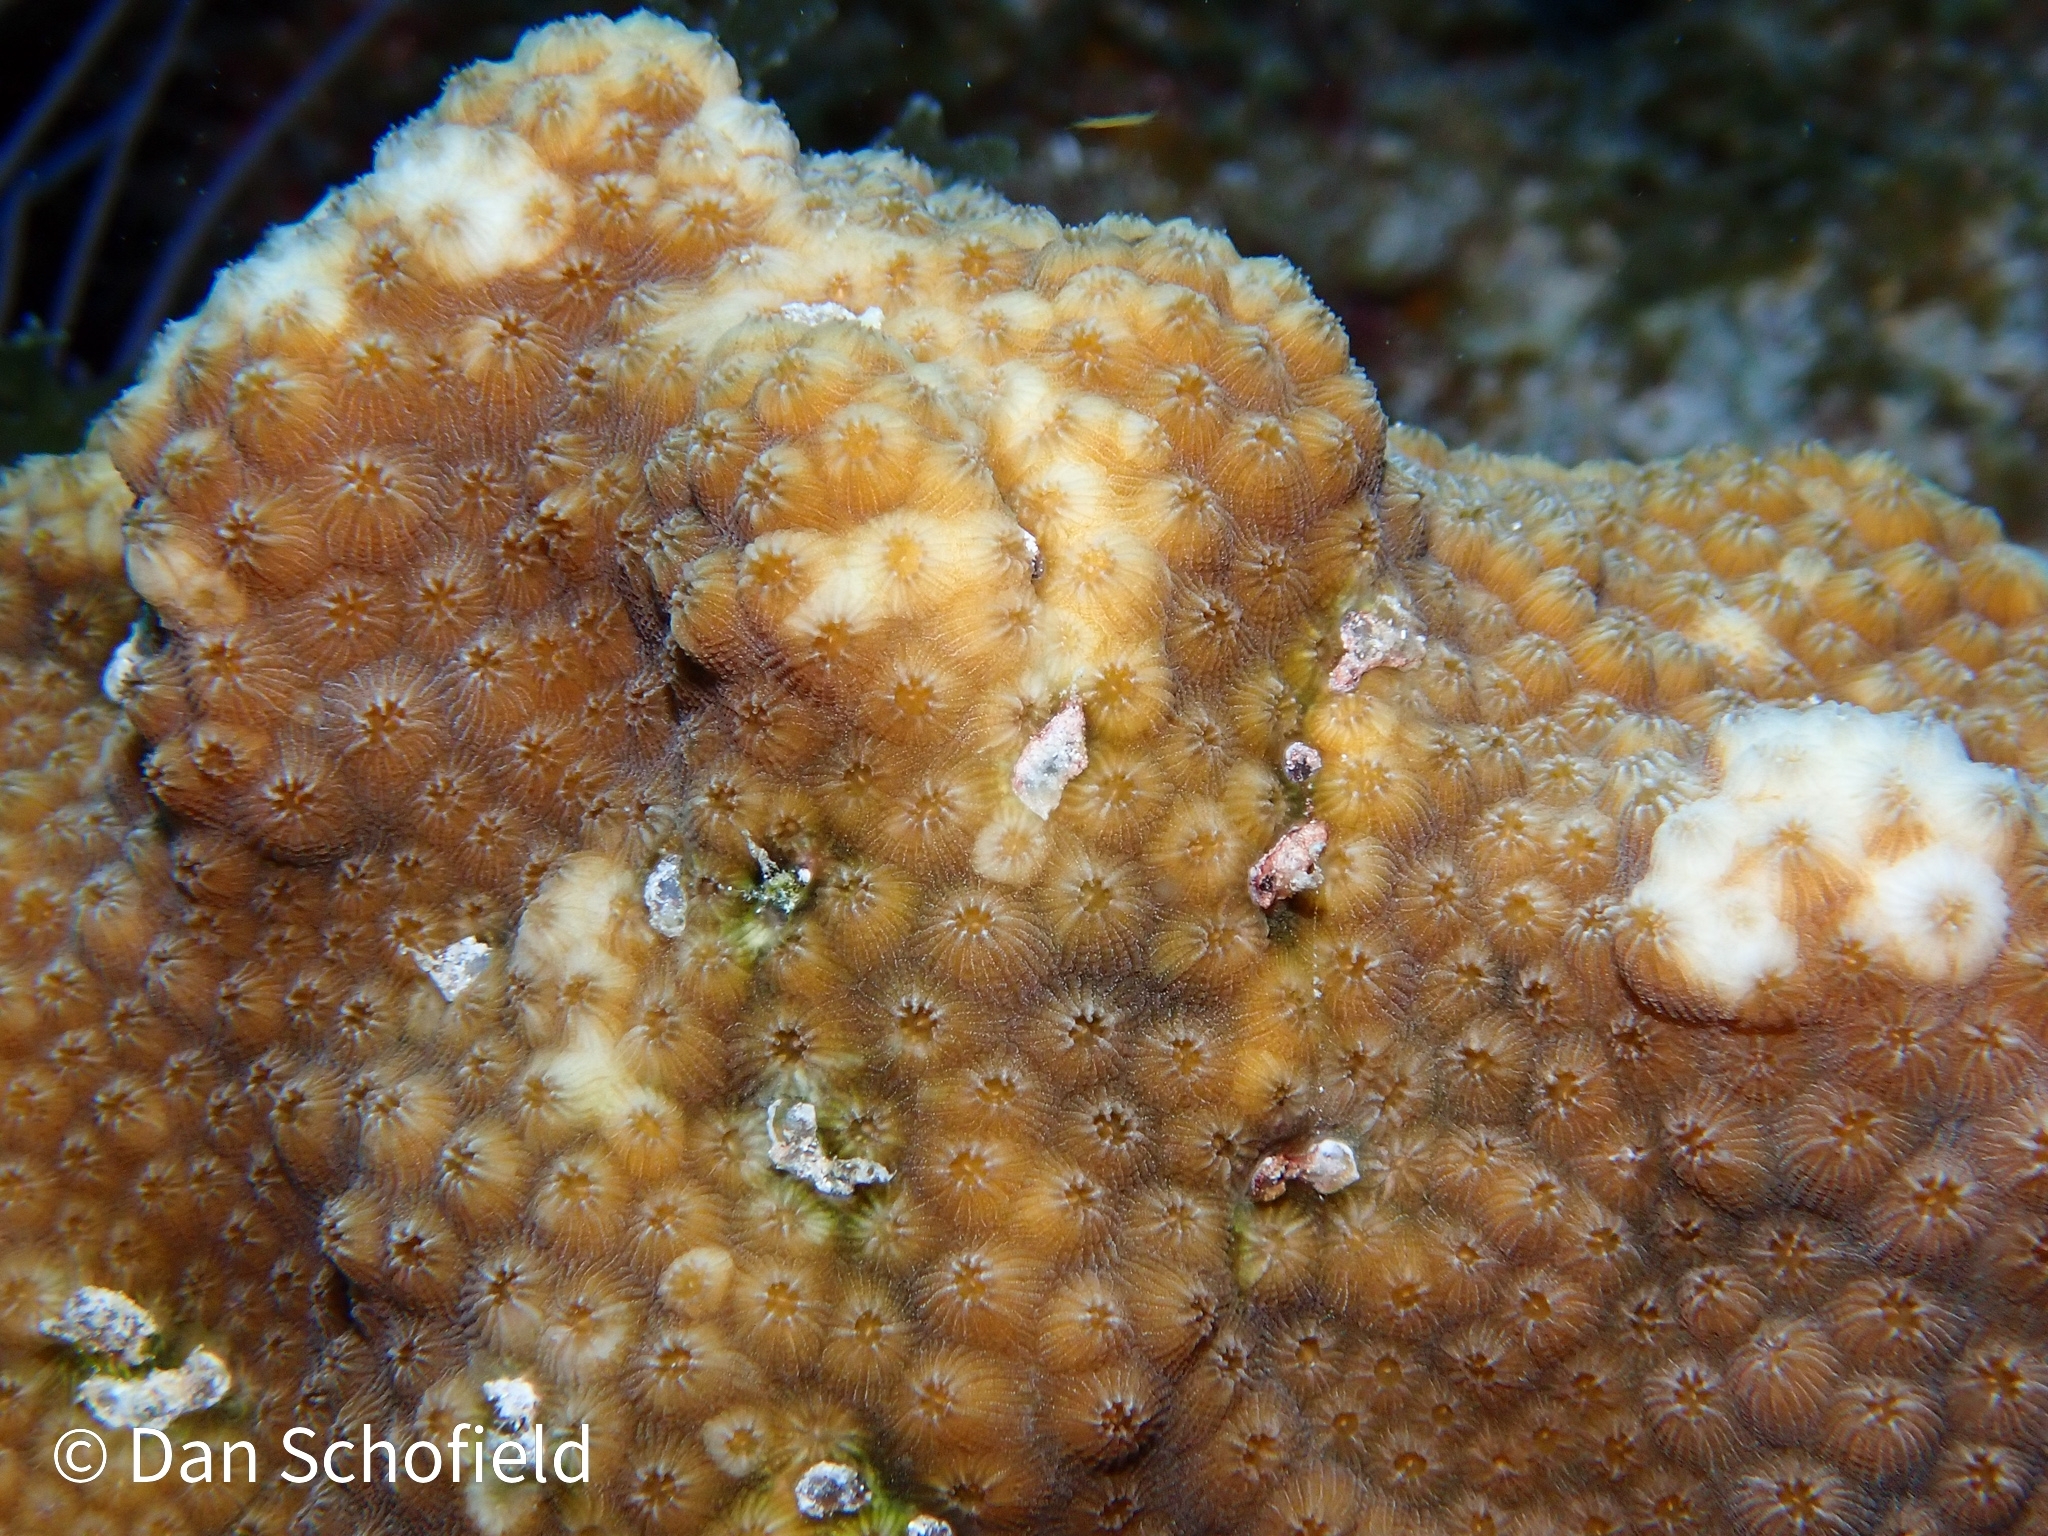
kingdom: Animalia
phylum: Cnidaria
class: Anthozoa
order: Scleractinia
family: Merulinidae
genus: Orbicella
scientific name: Orbicella franksi
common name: Bumpy star coral
